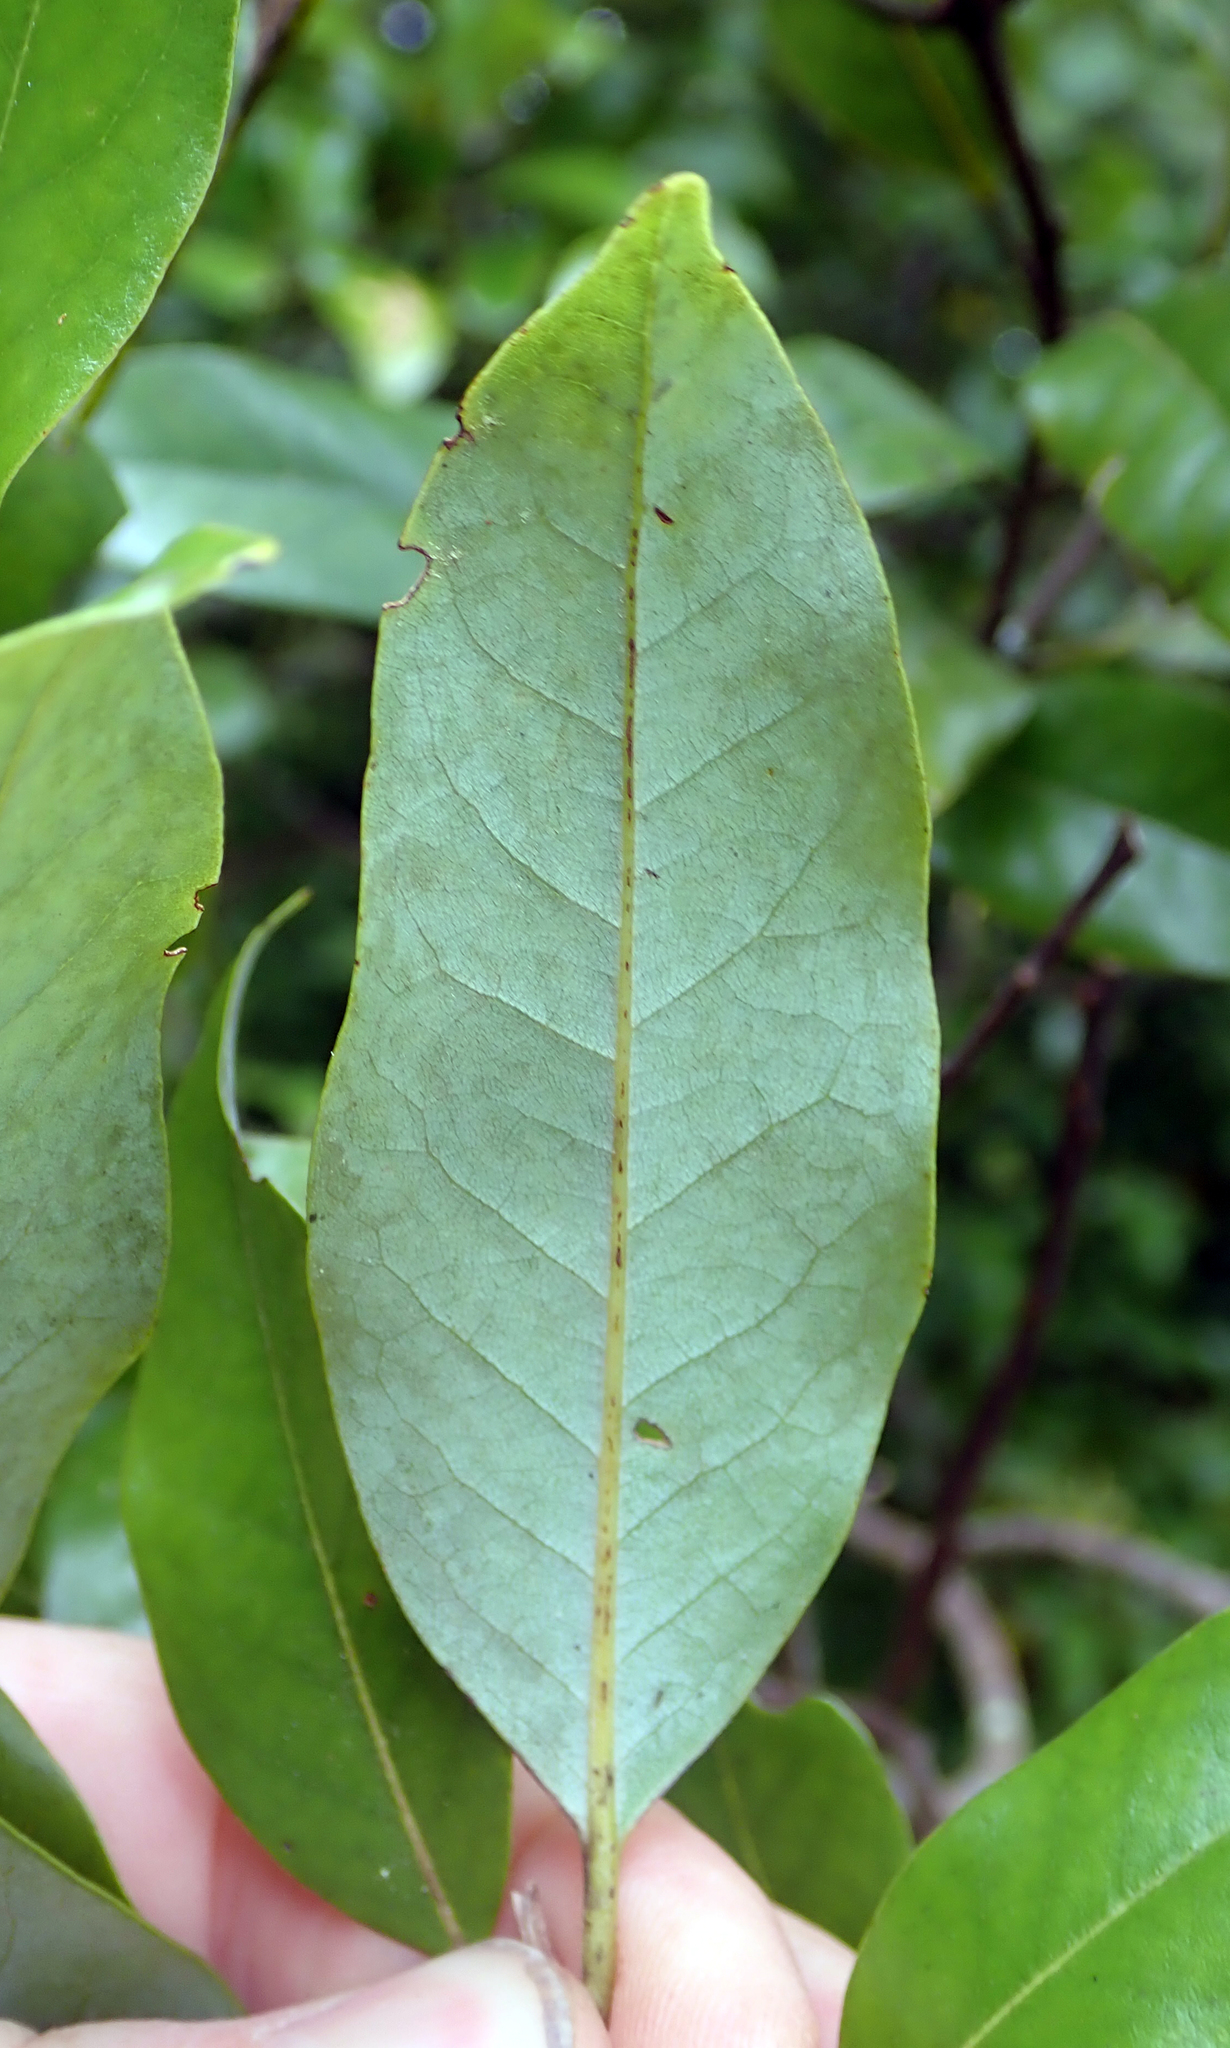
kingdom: Plantae
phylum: Tracheophyta
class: Magnoliopsida
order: Laurales
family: Lauraceae
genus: Beilschmiedia
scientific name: Beilschmiedia tawa
